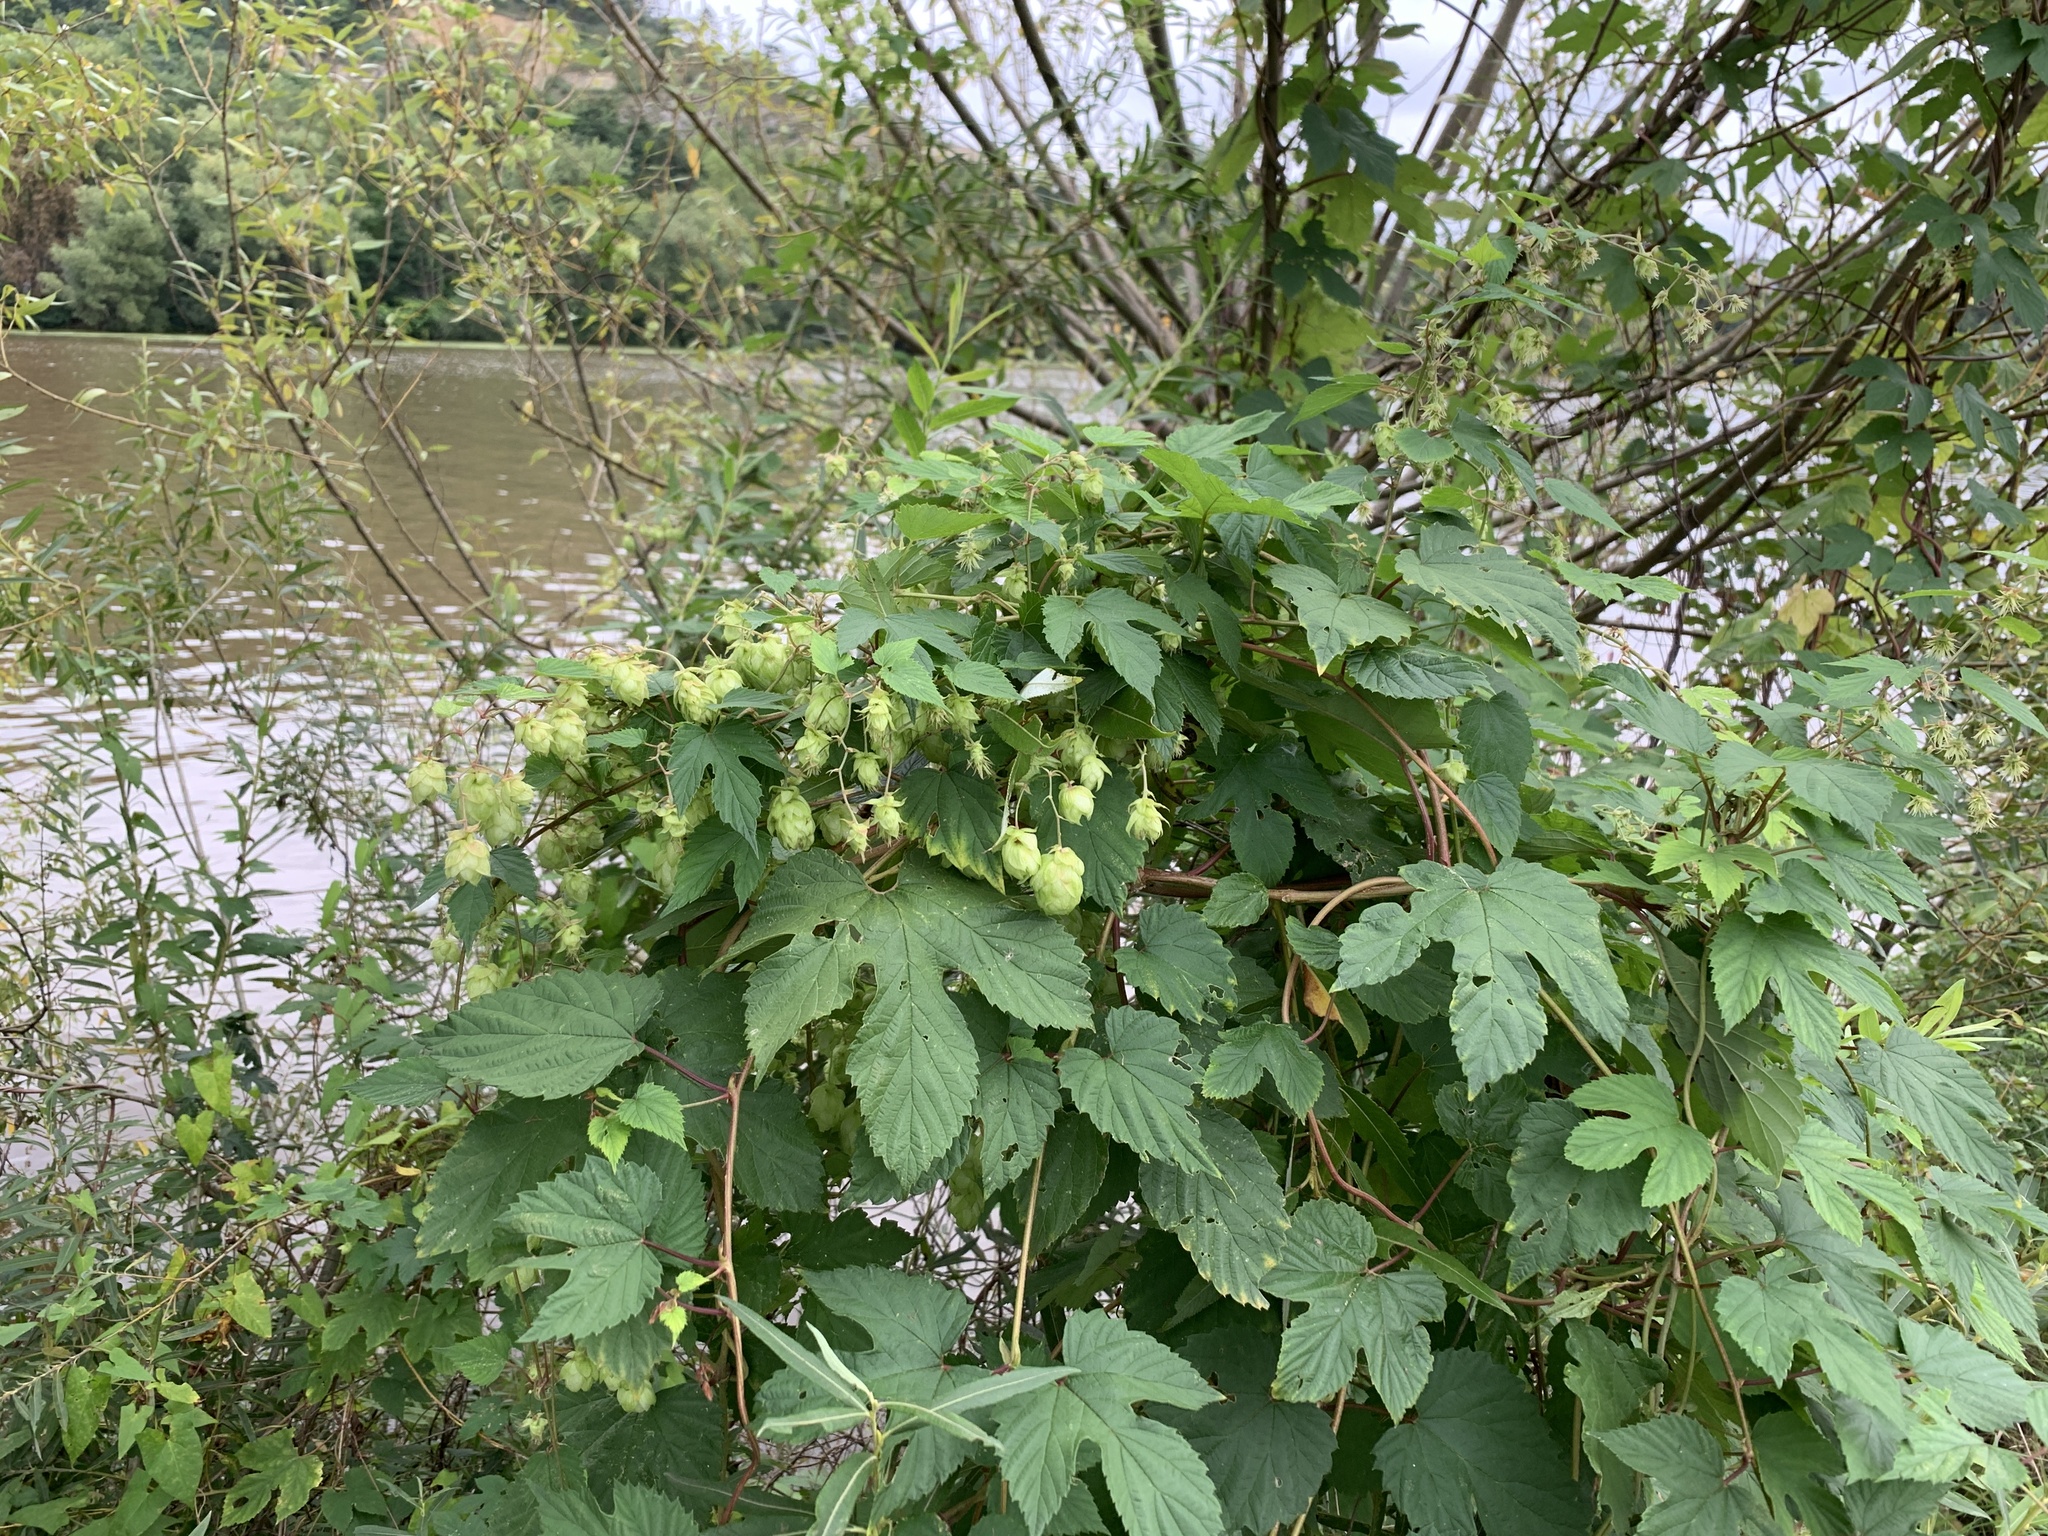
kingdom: Plantae
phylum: Tracheophyta
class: Magnoliopsida
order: Rosales
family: Cannabaceae
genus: Humulus
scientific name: Humulus lupulus
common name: Hop
